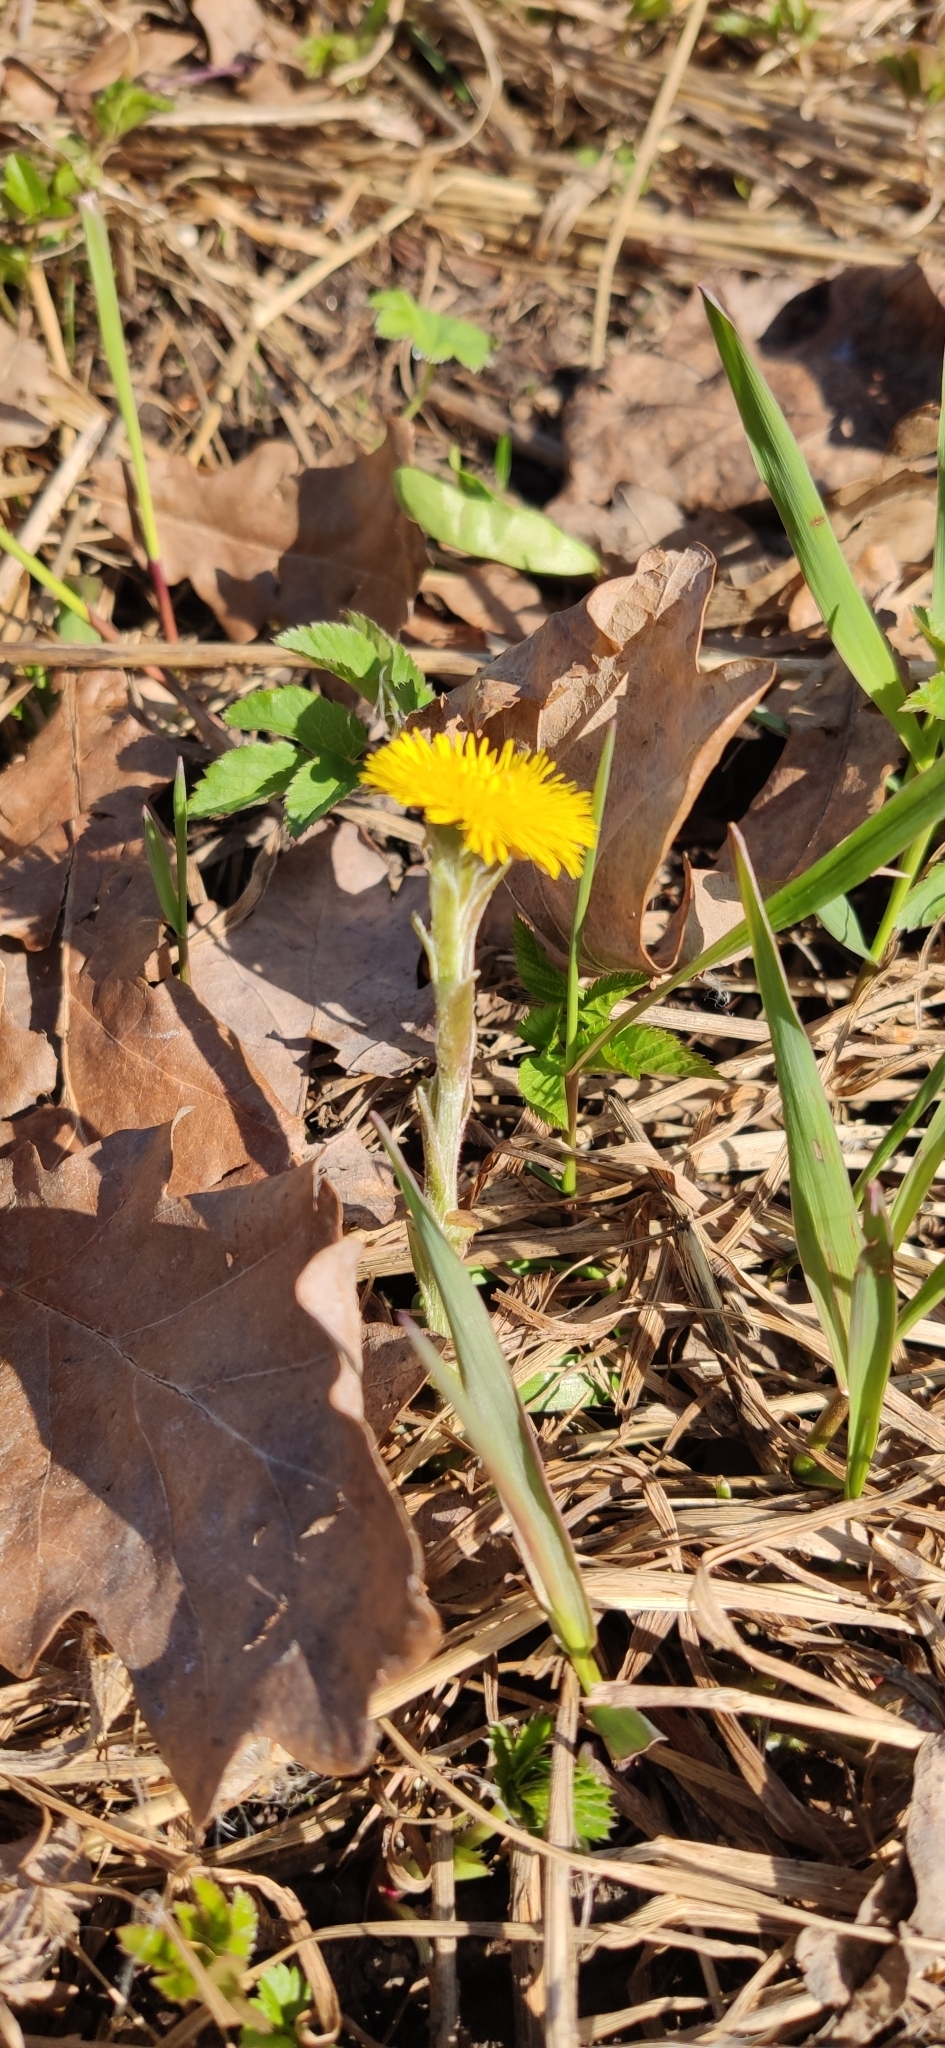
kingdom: Plantae
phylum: Tracheophyta
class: Magnoliopsida
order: Asterales
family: Asteraceae
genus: Tussilago
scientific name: Tussilago farfara
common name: Coltsfoot
